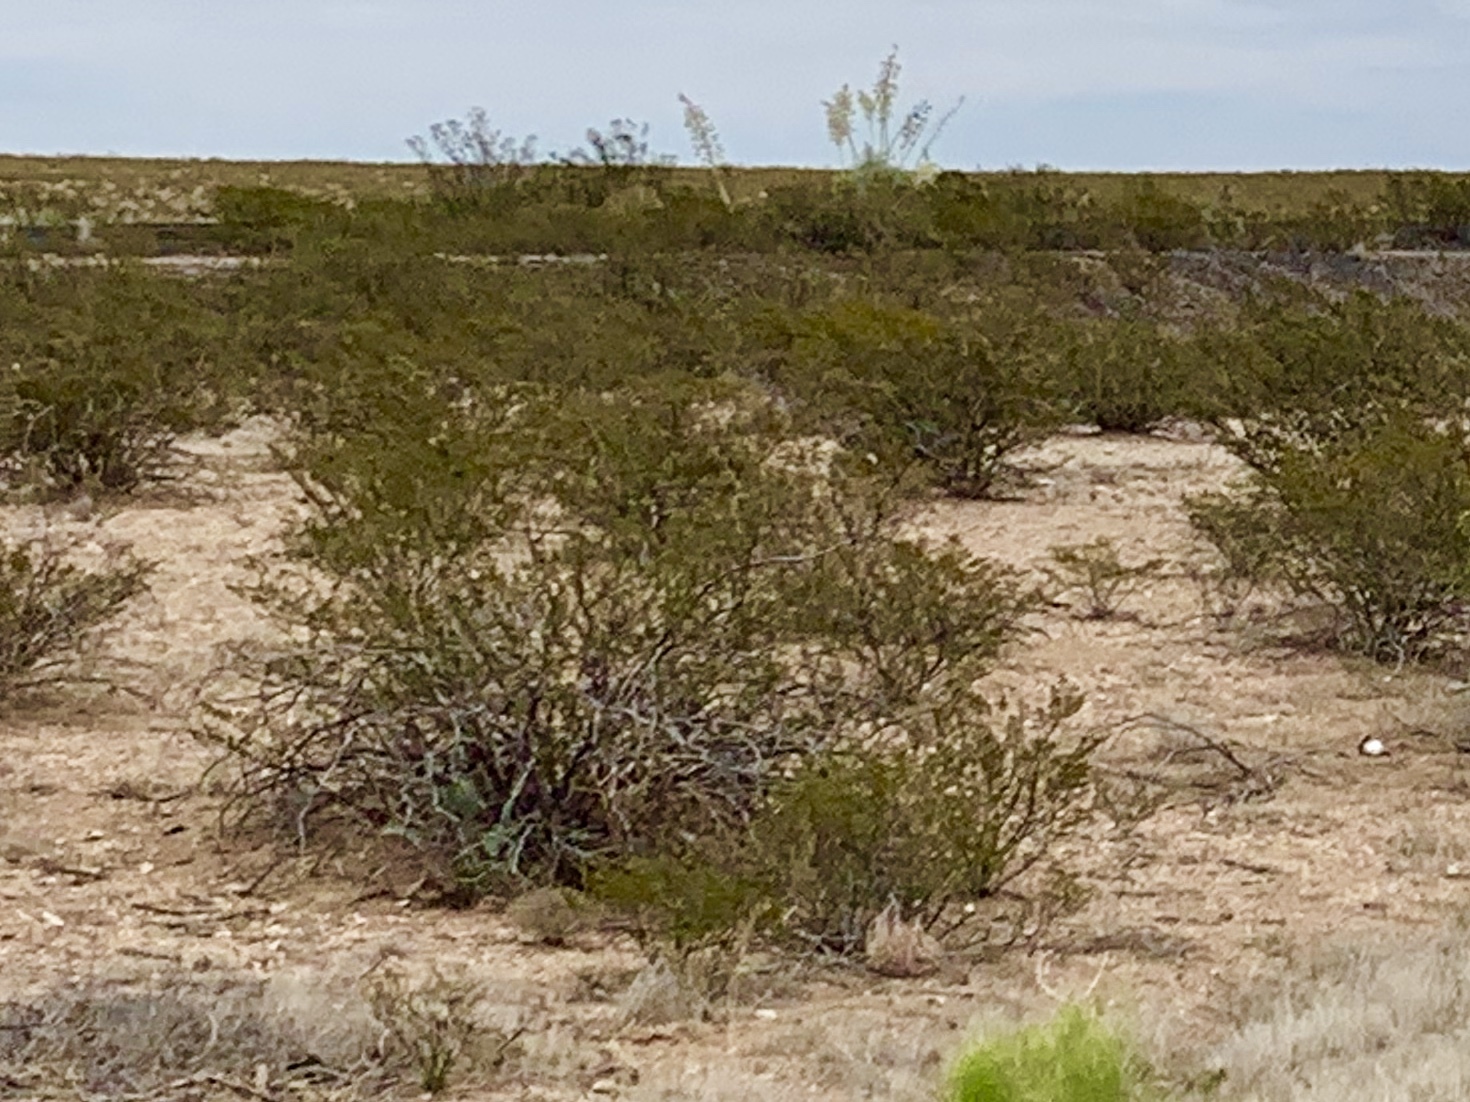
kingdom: Plantae
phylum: Tracheophyta
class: Magnoliopsida
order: Zygophyllales
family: Zygophyllaceae
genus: Larrea
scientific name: Larrea tridentata
